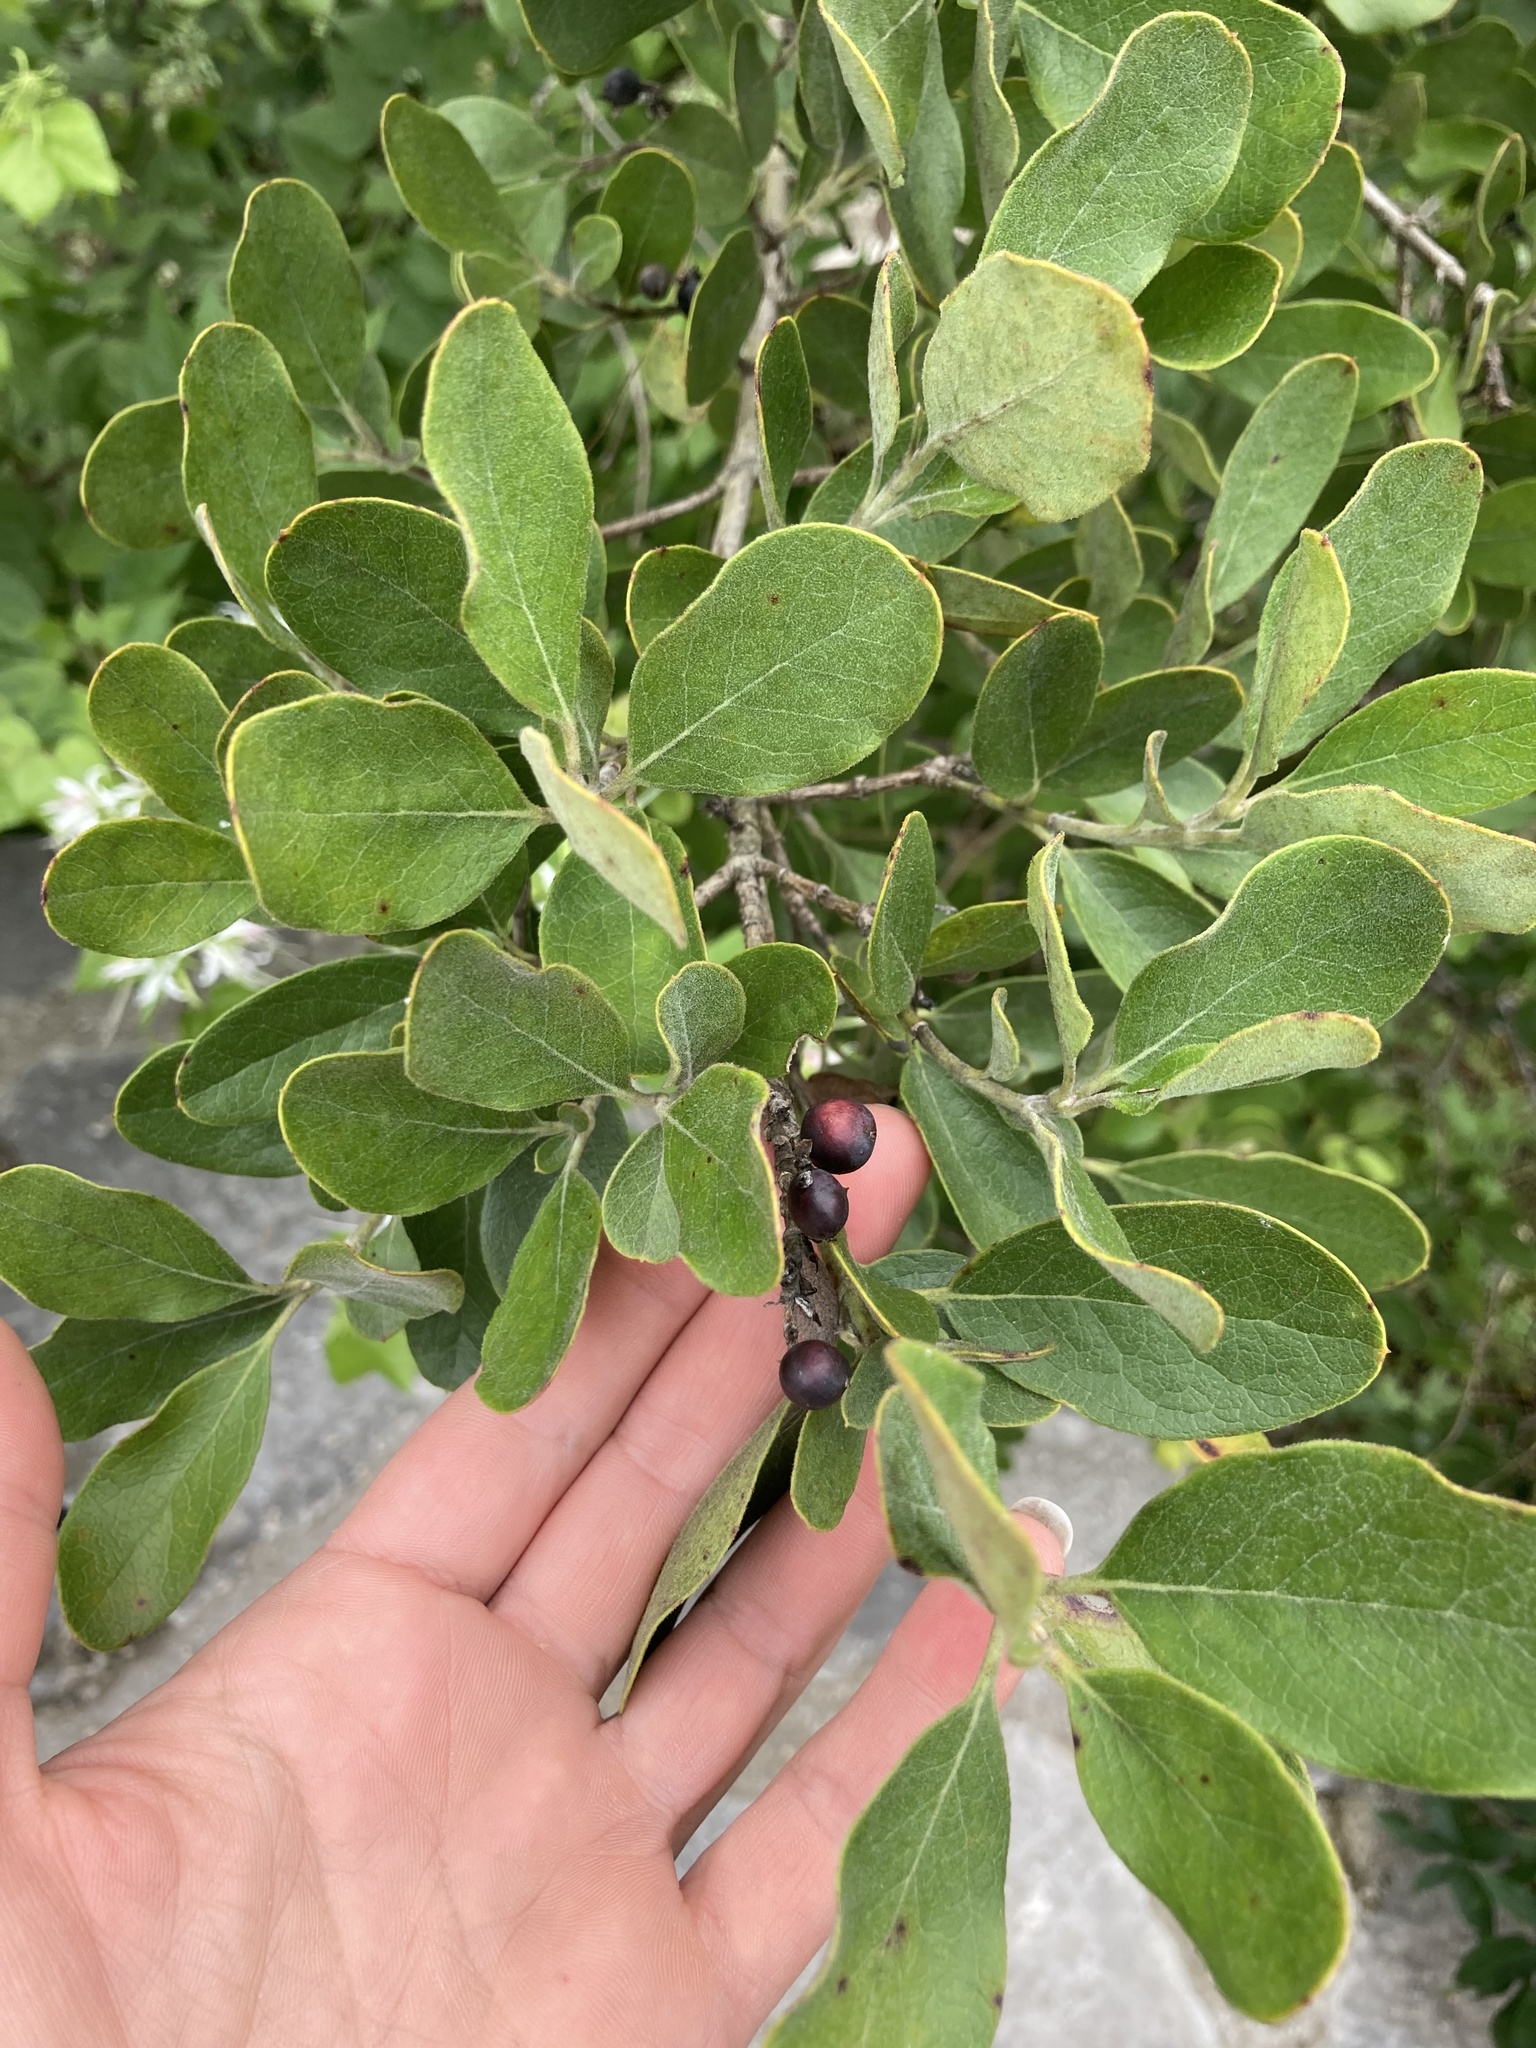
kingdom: Plantae
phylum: Tracheophyta
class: Magnoliopsida
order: Garryales
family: Garryaceae
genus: Garrya
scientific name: Garrya lindheimeri
